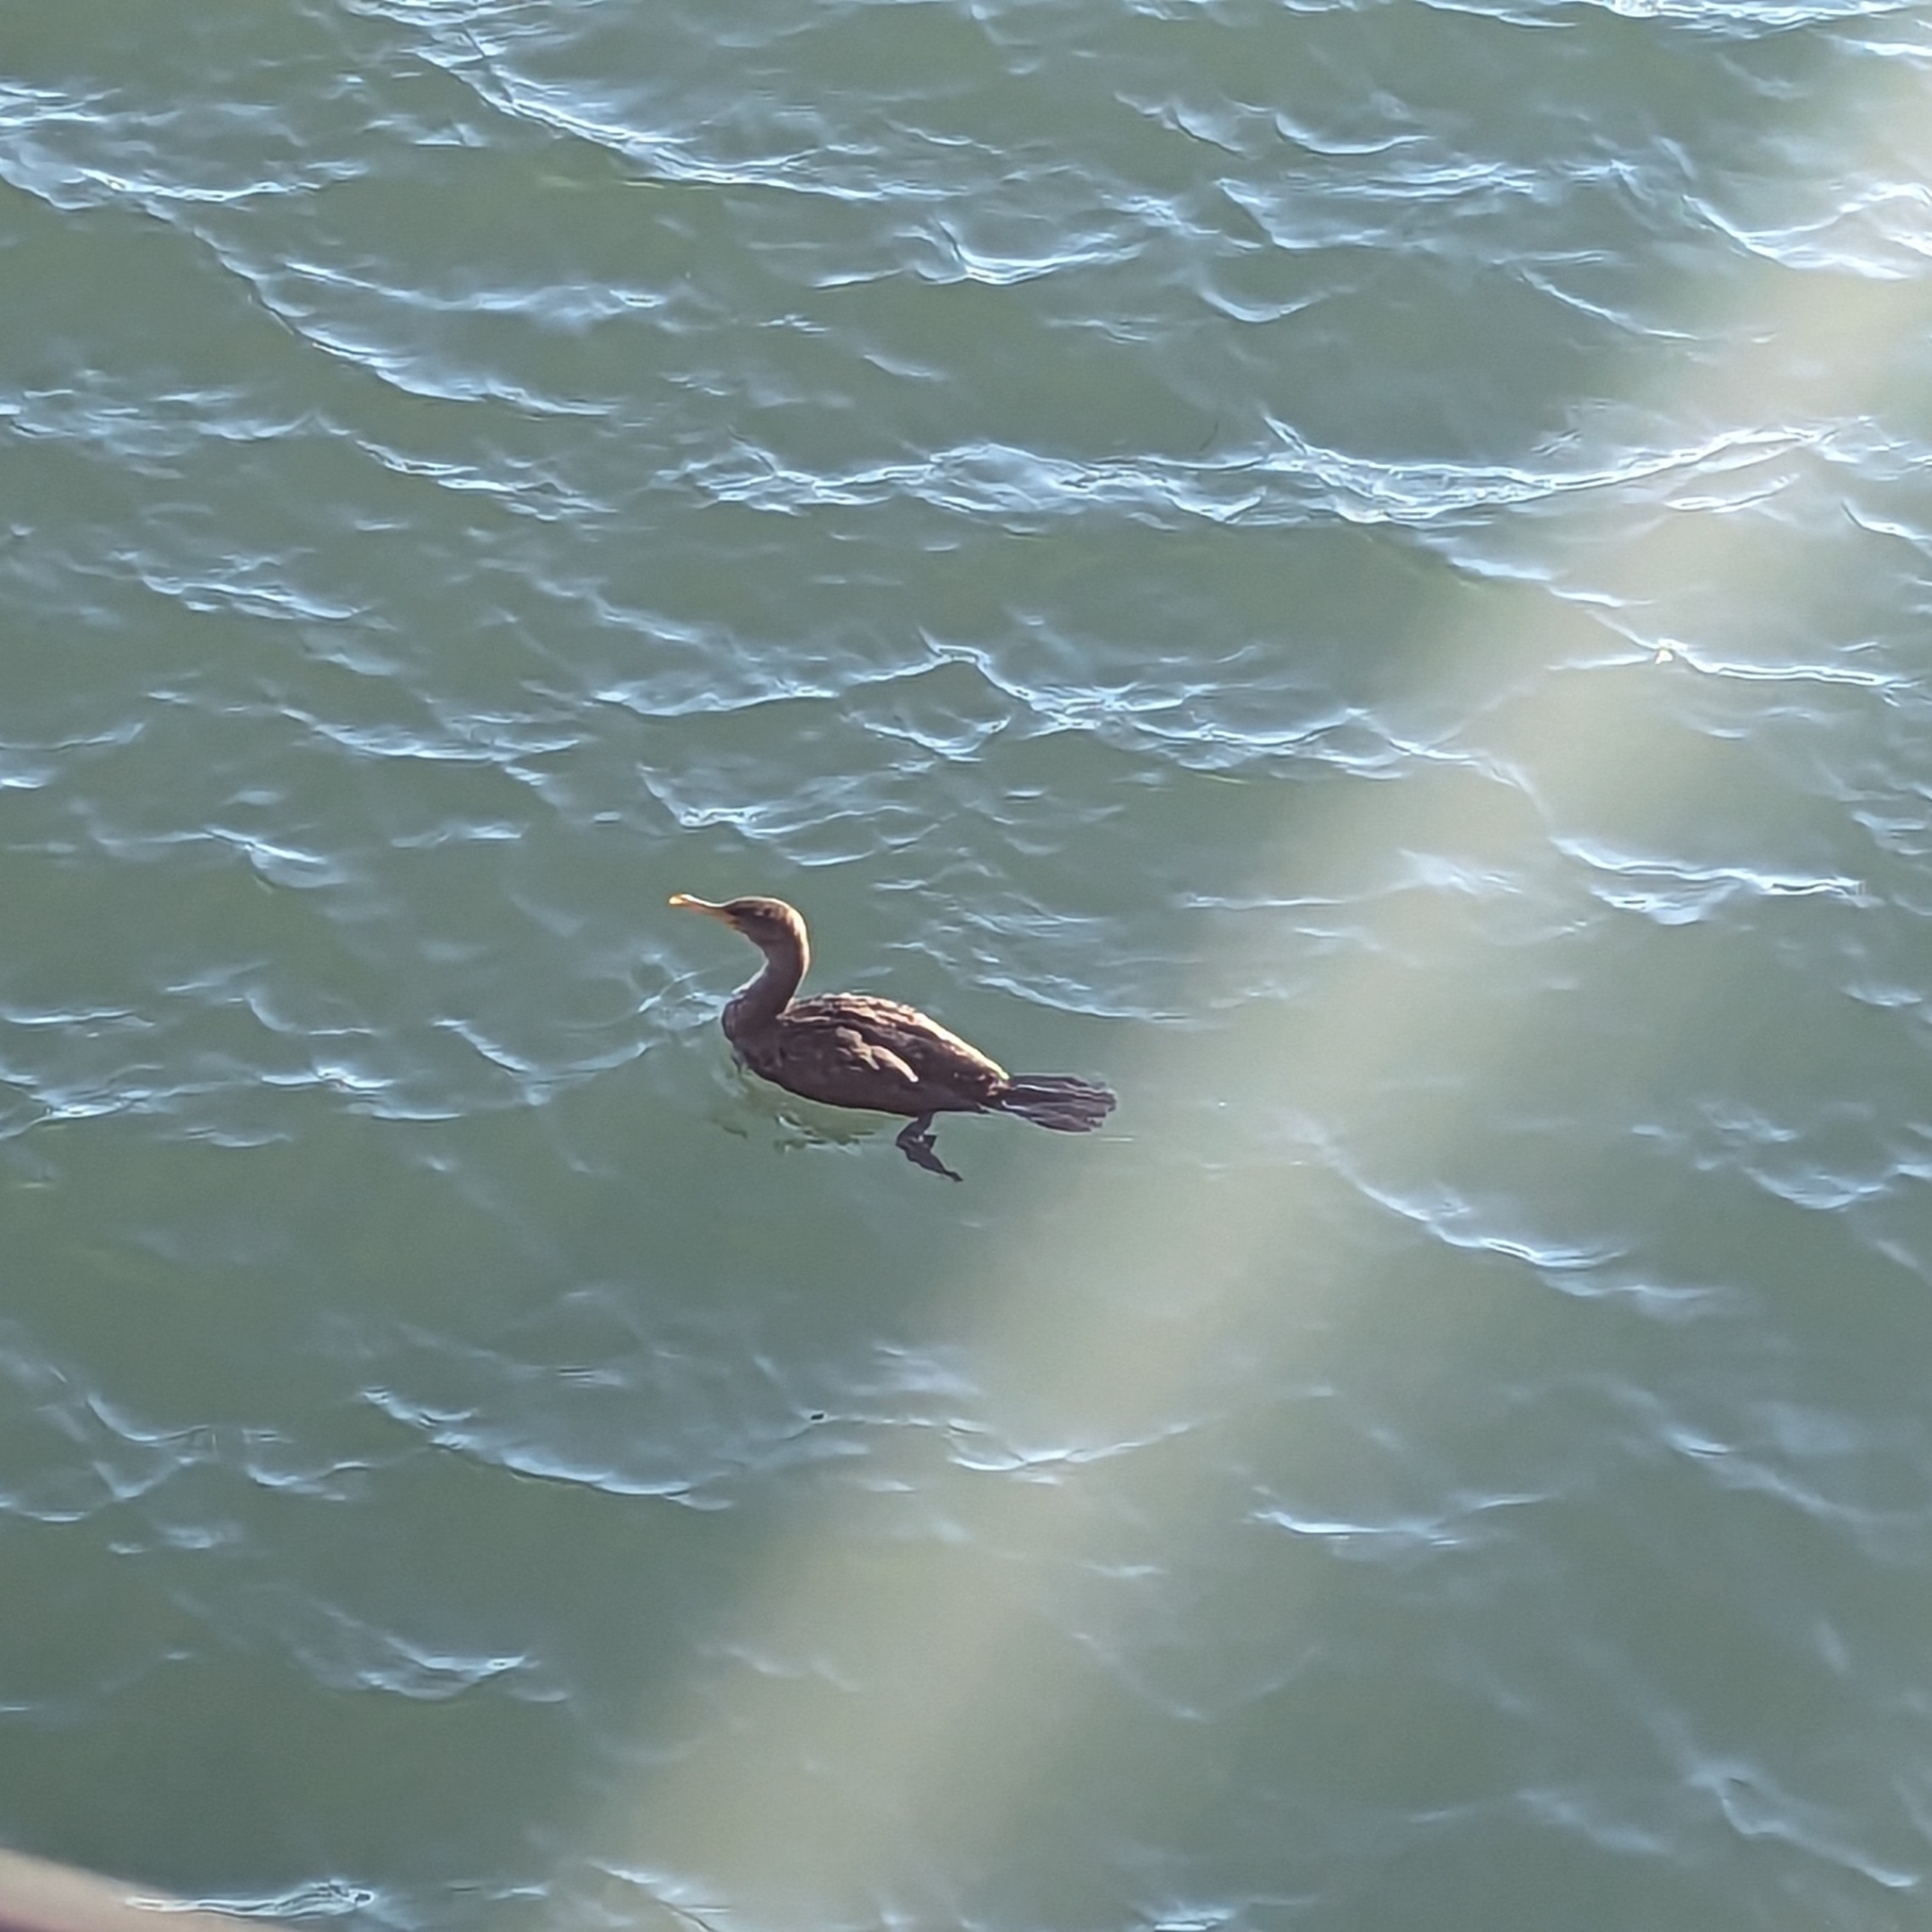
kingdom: Animalia
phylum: Chordata
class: Aves
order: Suliformes
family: Phalacrocoracidae
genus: Phalacrocorax
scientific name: Phalacrocorax auritus
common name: Double-crested cormorant
